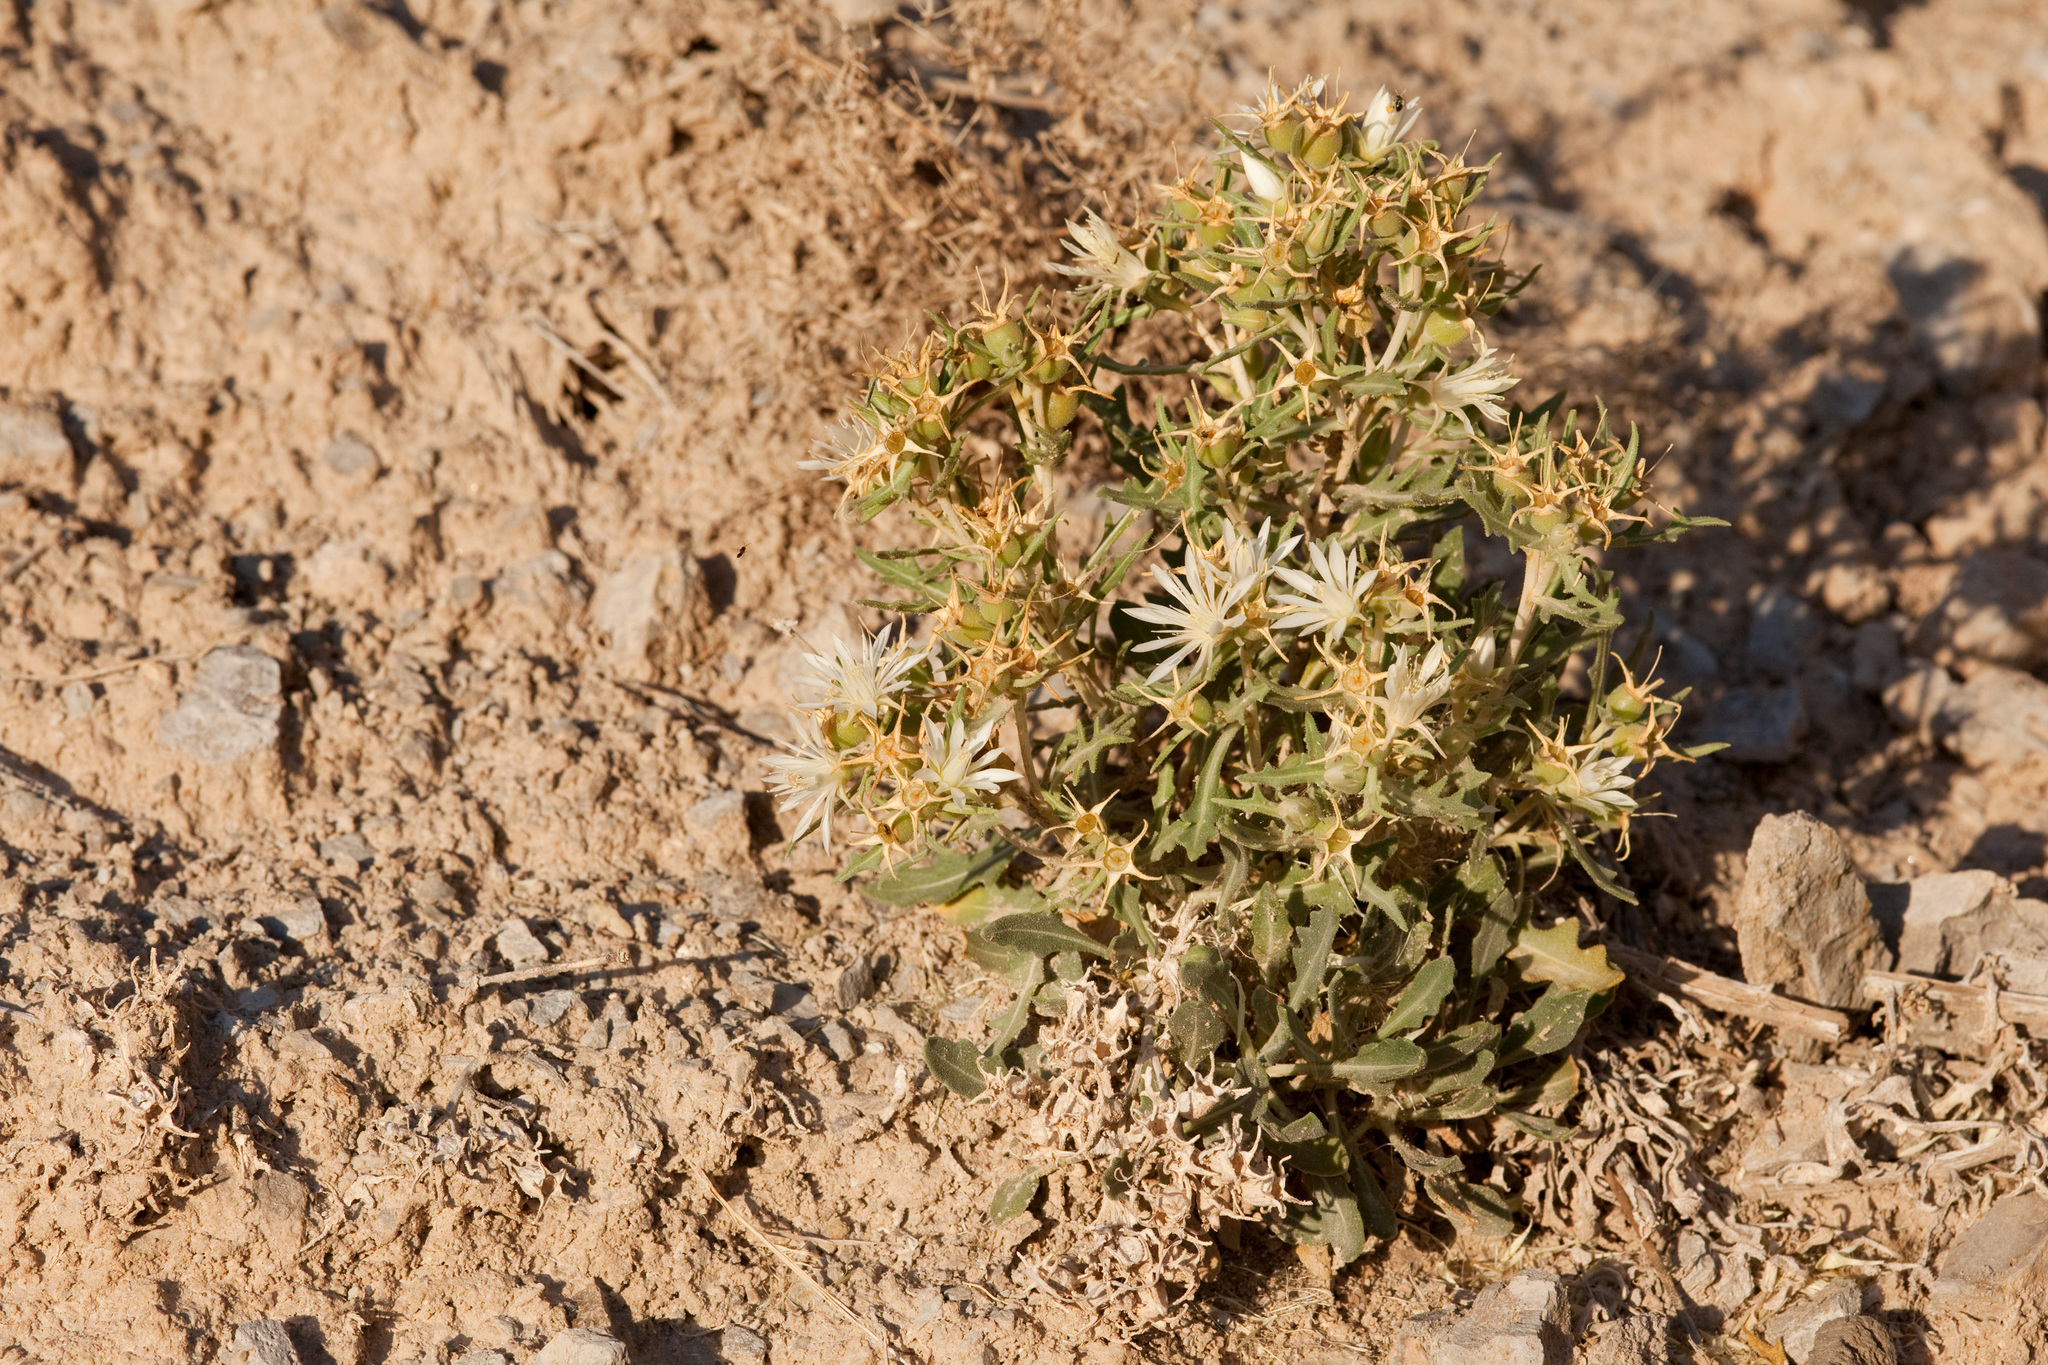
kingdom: Plantae
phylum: Tracheophyta
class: Magnoliopsida
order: Cornales
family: Loasaceae
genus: Mentzelia
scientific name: Mentzelia humilis
